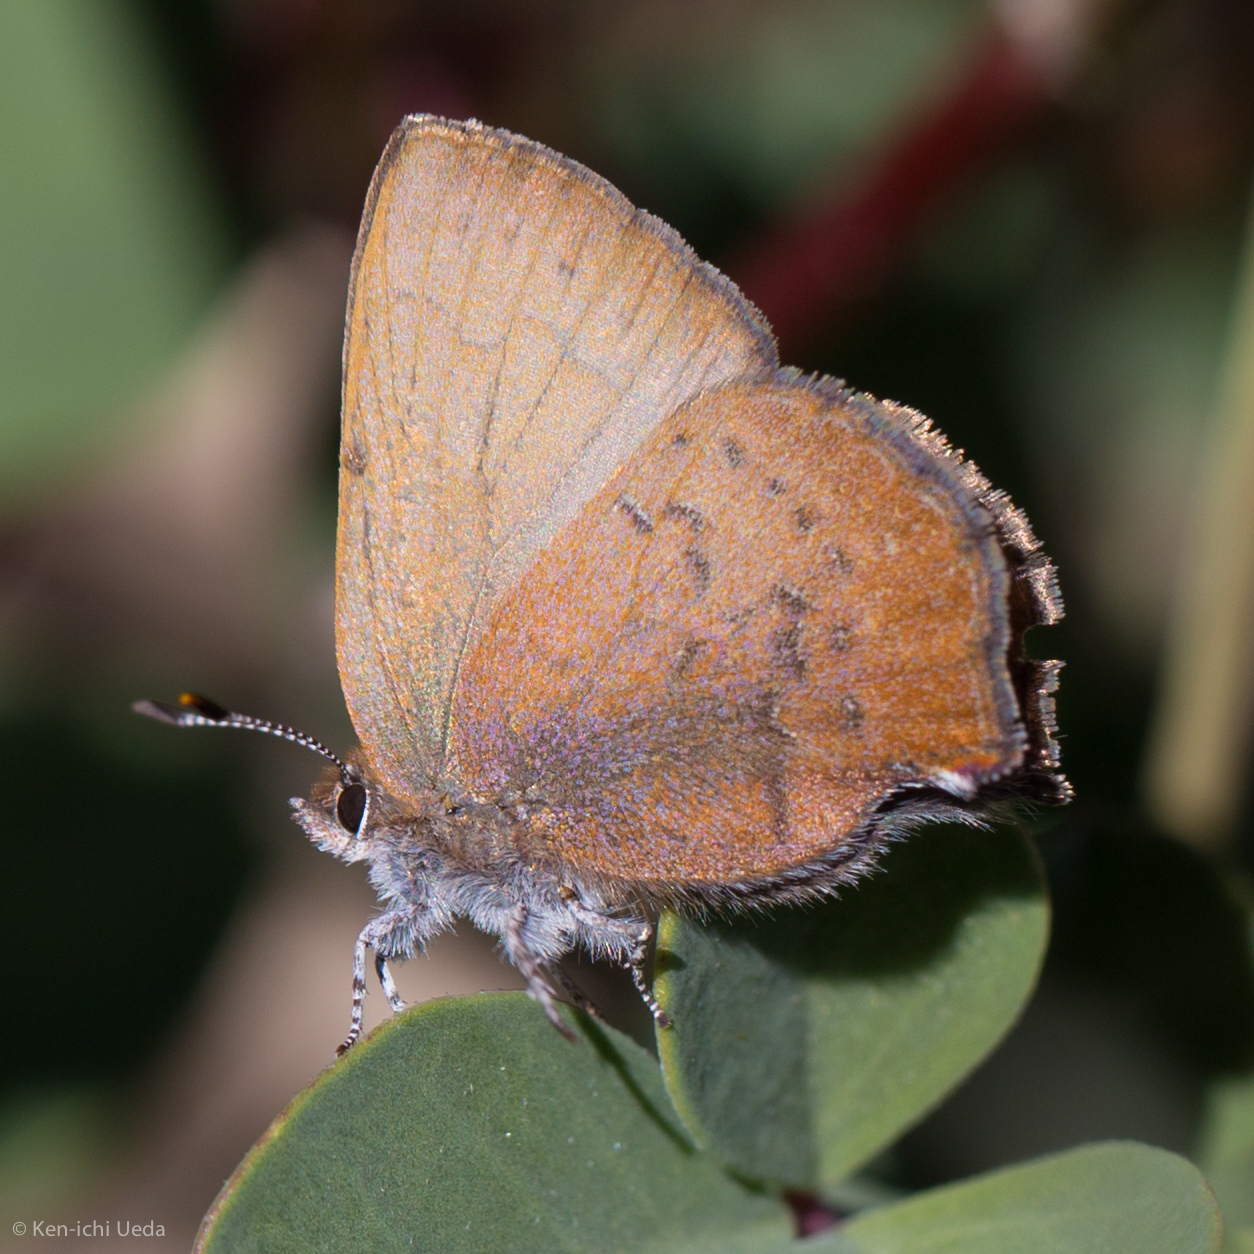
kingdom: Animalia
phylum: Arthropoda
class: Insecta
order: Lepidoptera
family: Lycaenidae
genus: Incisalia
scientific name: Incisalia irioides
